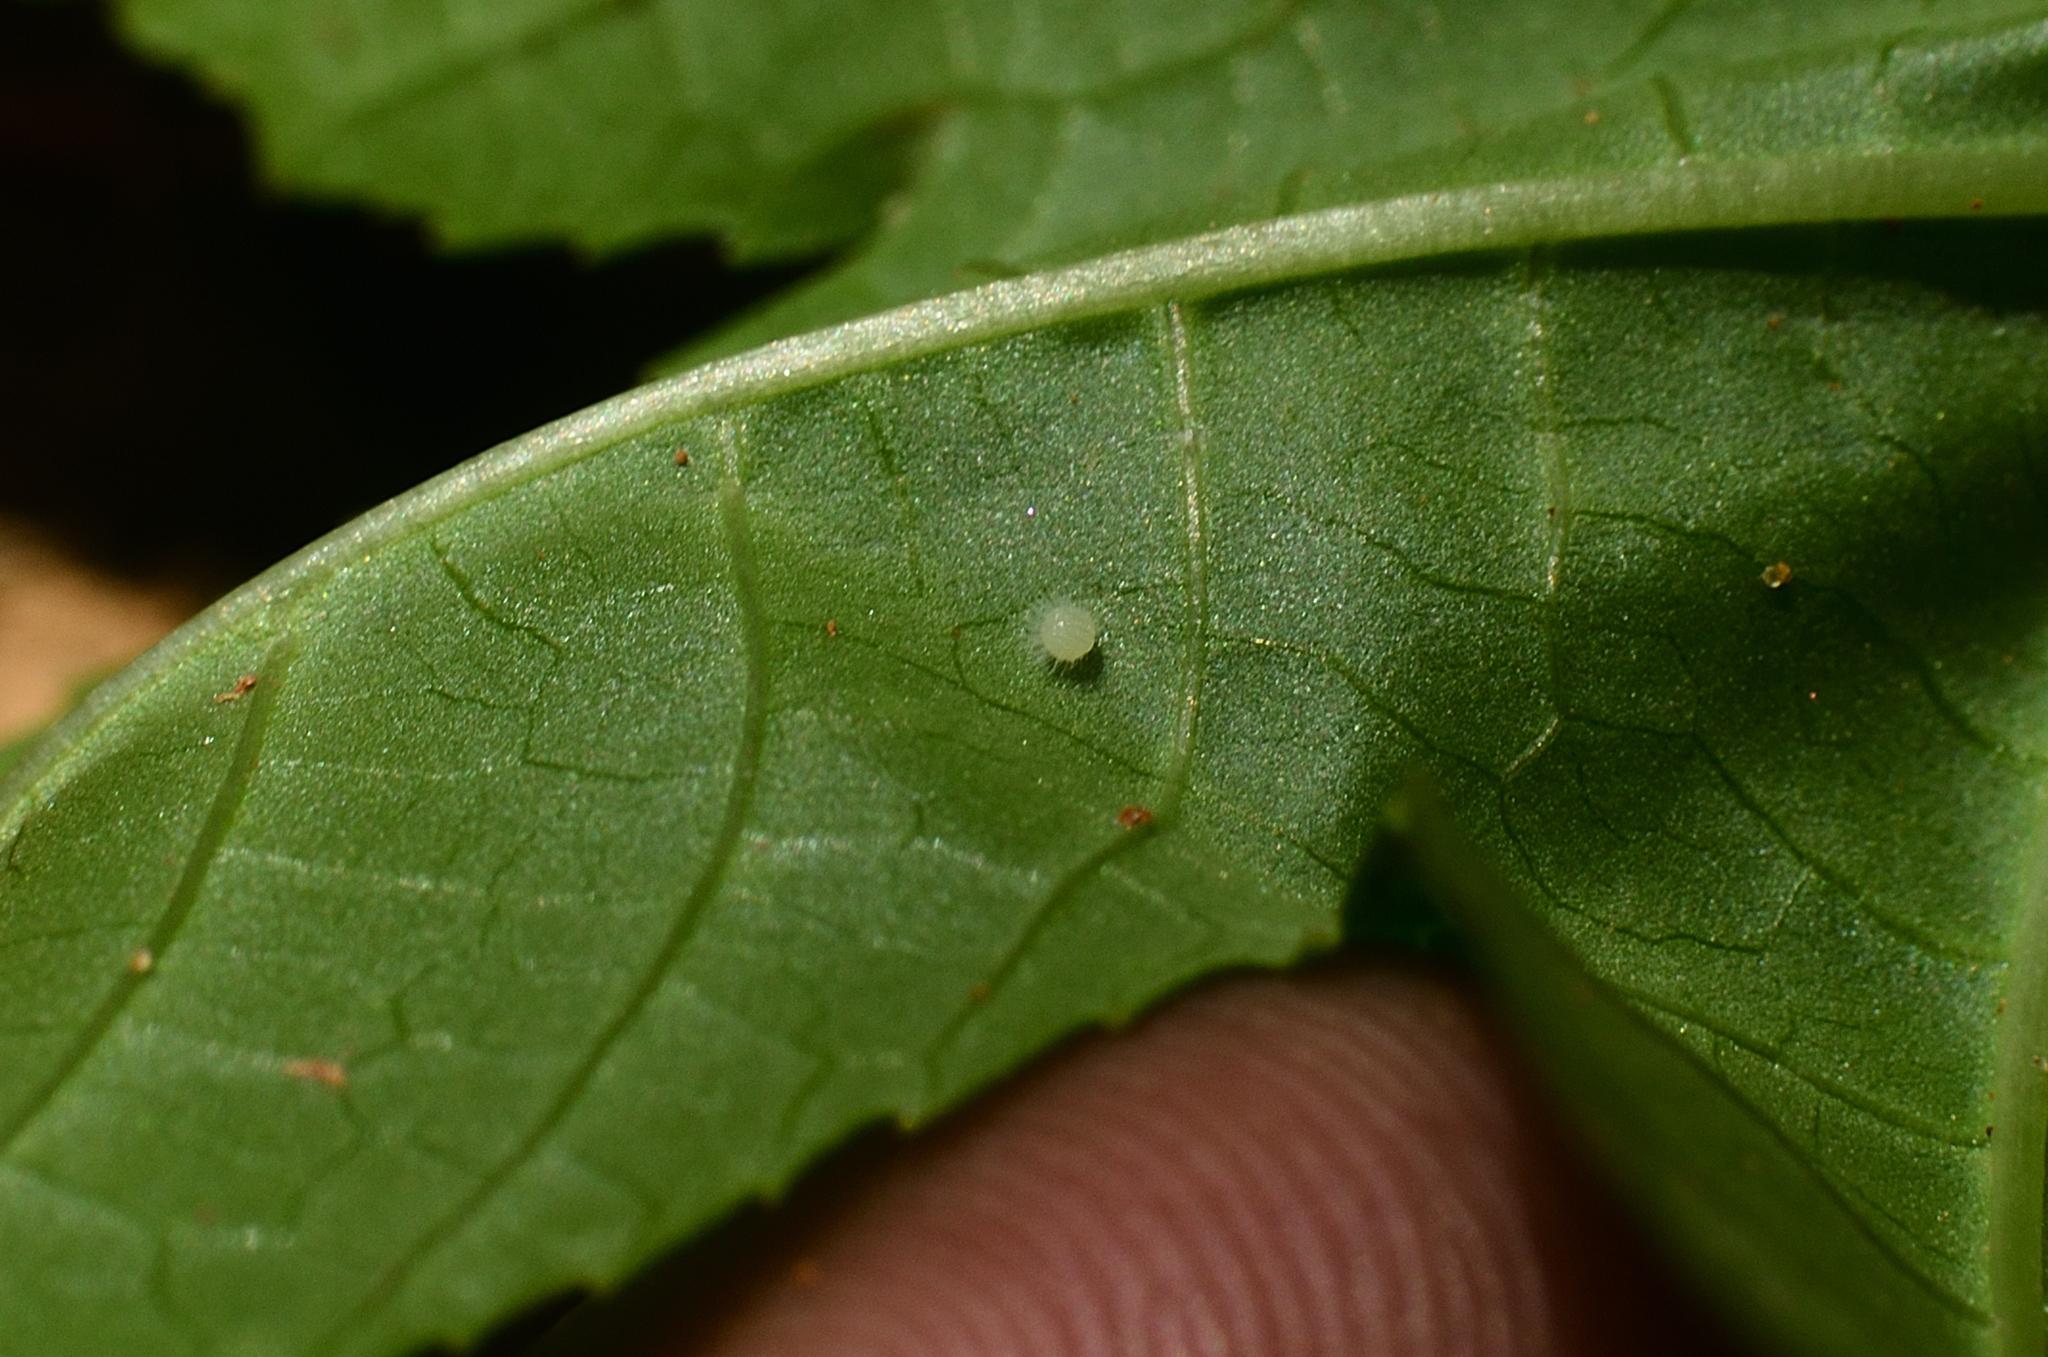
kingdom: Animalia
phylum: Arthropoda
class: Insecta
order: Lepidoptera
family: Nymphalidae
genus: Ariadne
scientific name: Ariadne merione
